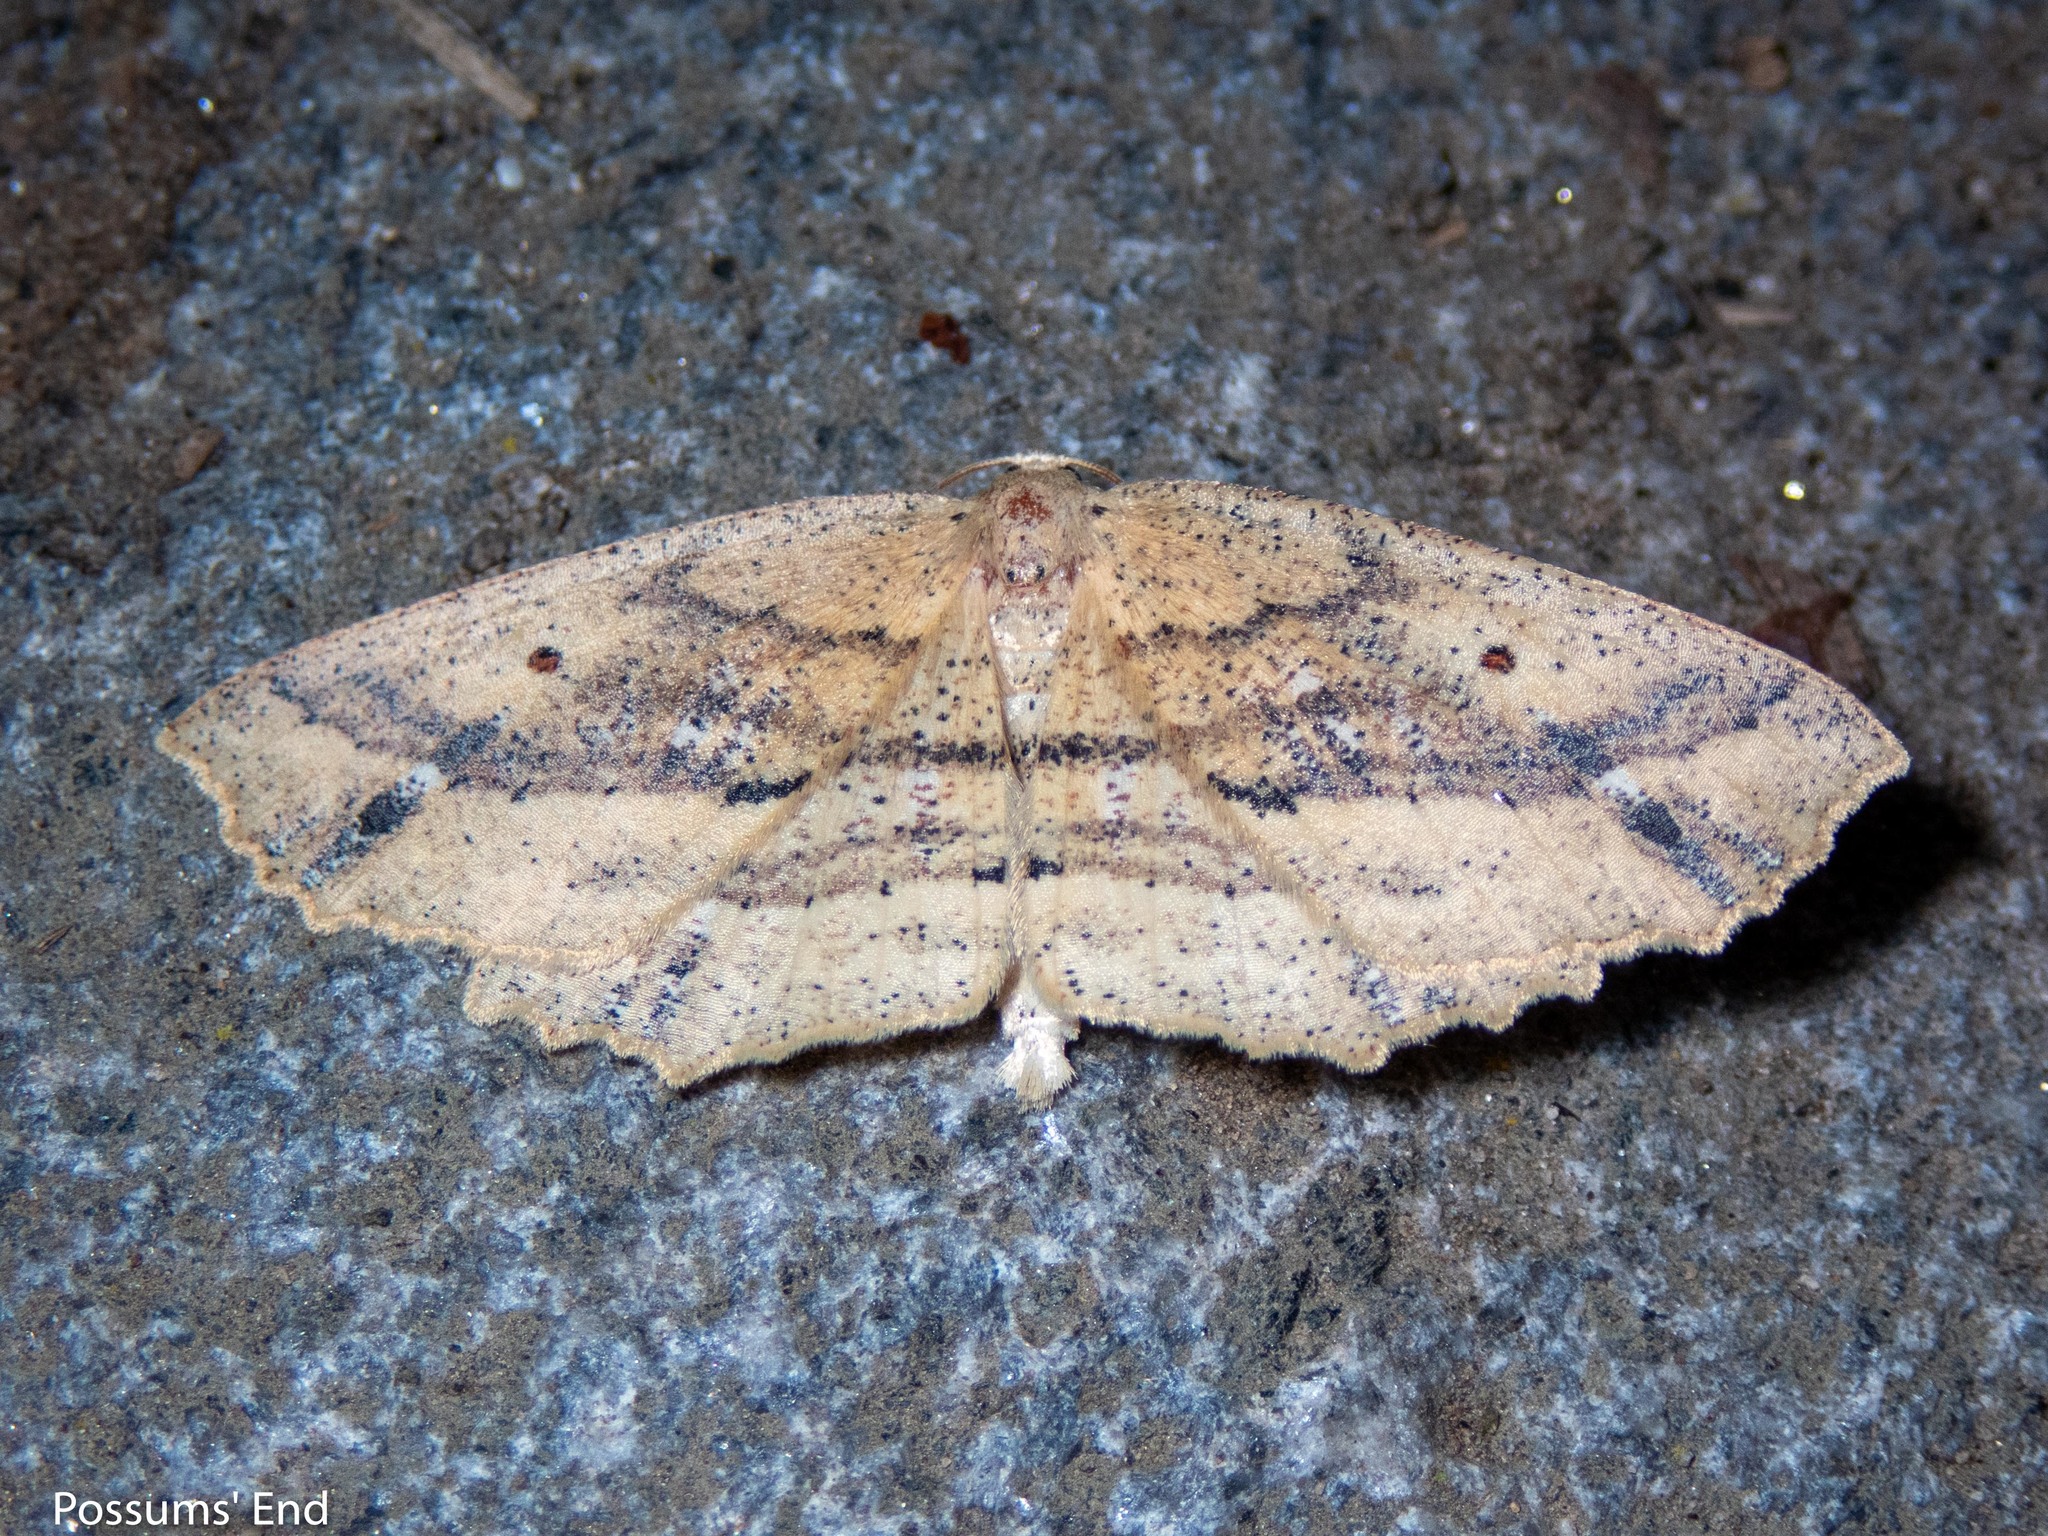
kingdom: Animalia
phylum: Arthropoda
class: Insecta
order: Lepidoptera
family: Geometridae
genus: Xyridacma
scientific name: Xyridacma veronicae
